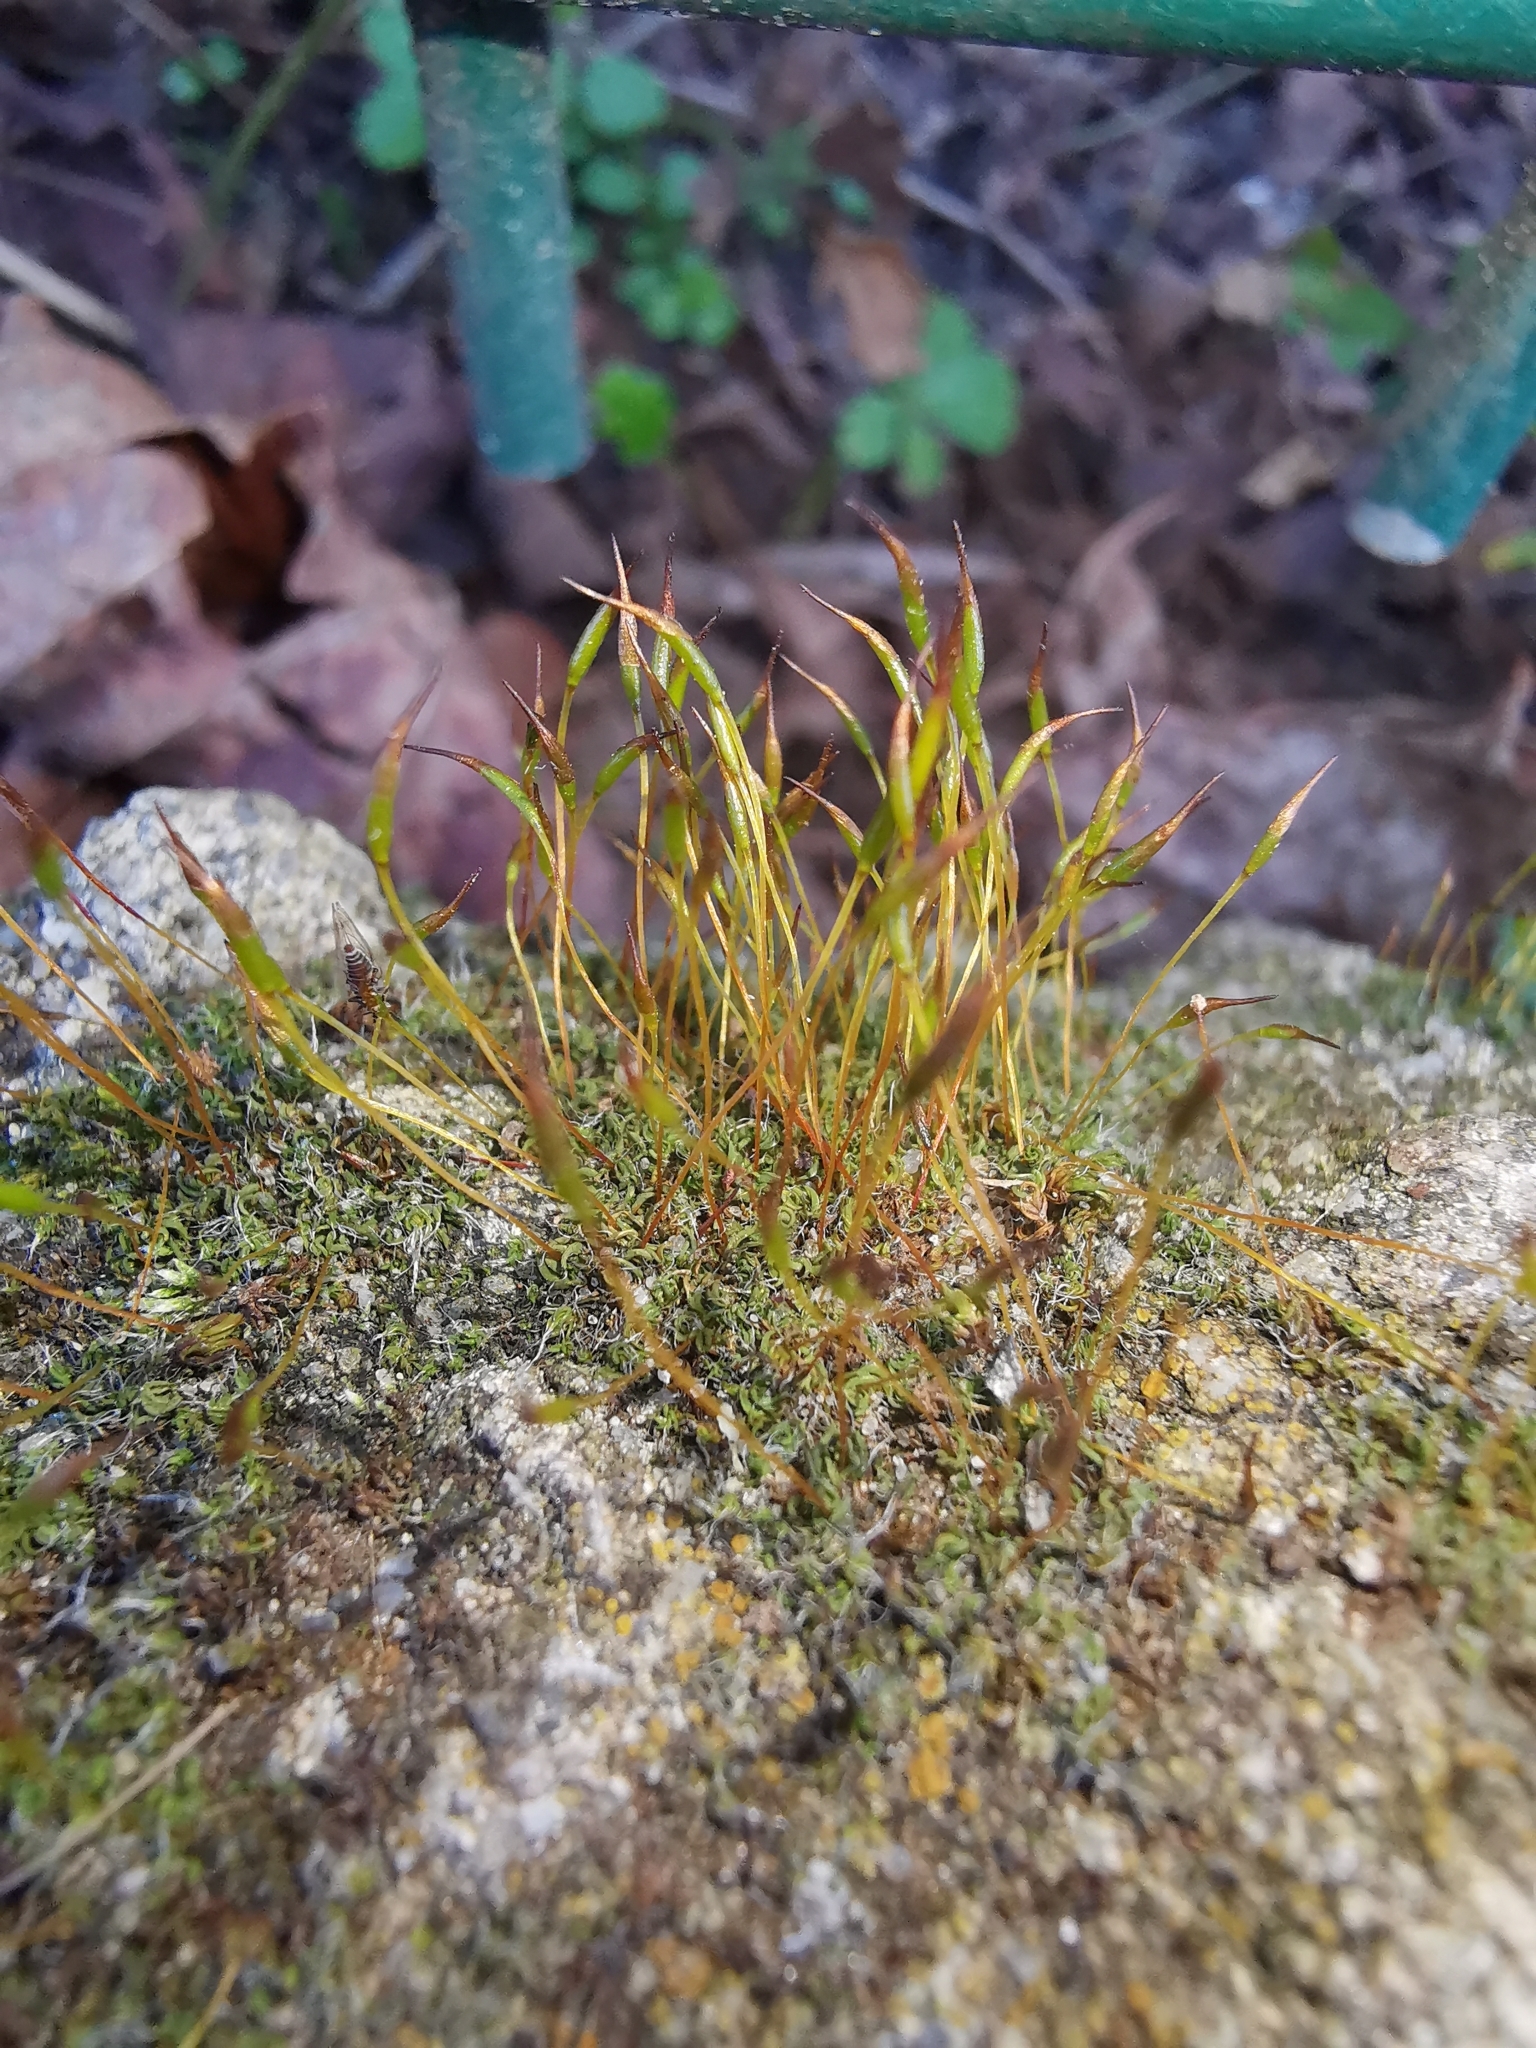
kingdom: Plantae
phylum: Bryophyta
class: Bryopsida
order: Pottiales
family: Pottiaceae
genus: Tortula
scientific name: Tortula muralis
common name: Wall screw-moss
